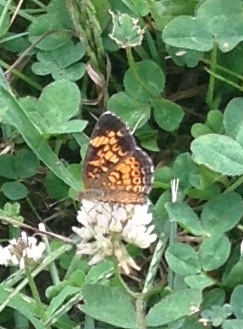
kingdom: Animalia
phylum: Arthropoda
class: Insecta
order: Lepidoptera
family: Nymphalidae
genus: Phyciodes
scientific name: Phyciodes tharos
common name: Pearl crescent
